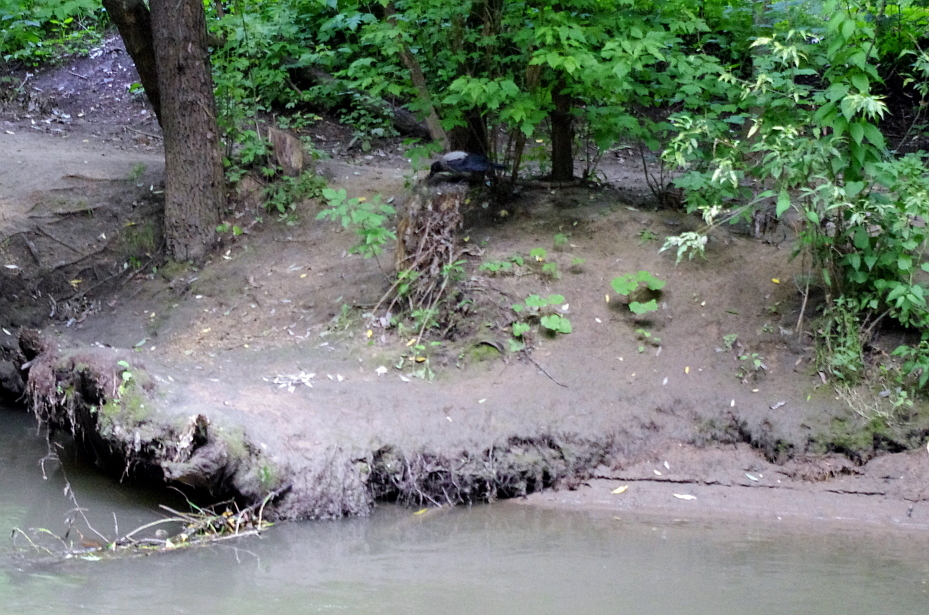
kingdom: Plantae
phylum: Tracheophyta
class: Magnoliopsida
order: Asterales
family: Asteraceae
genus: Tussilago
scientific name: Tussilago farfara
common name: Coltsfoot
